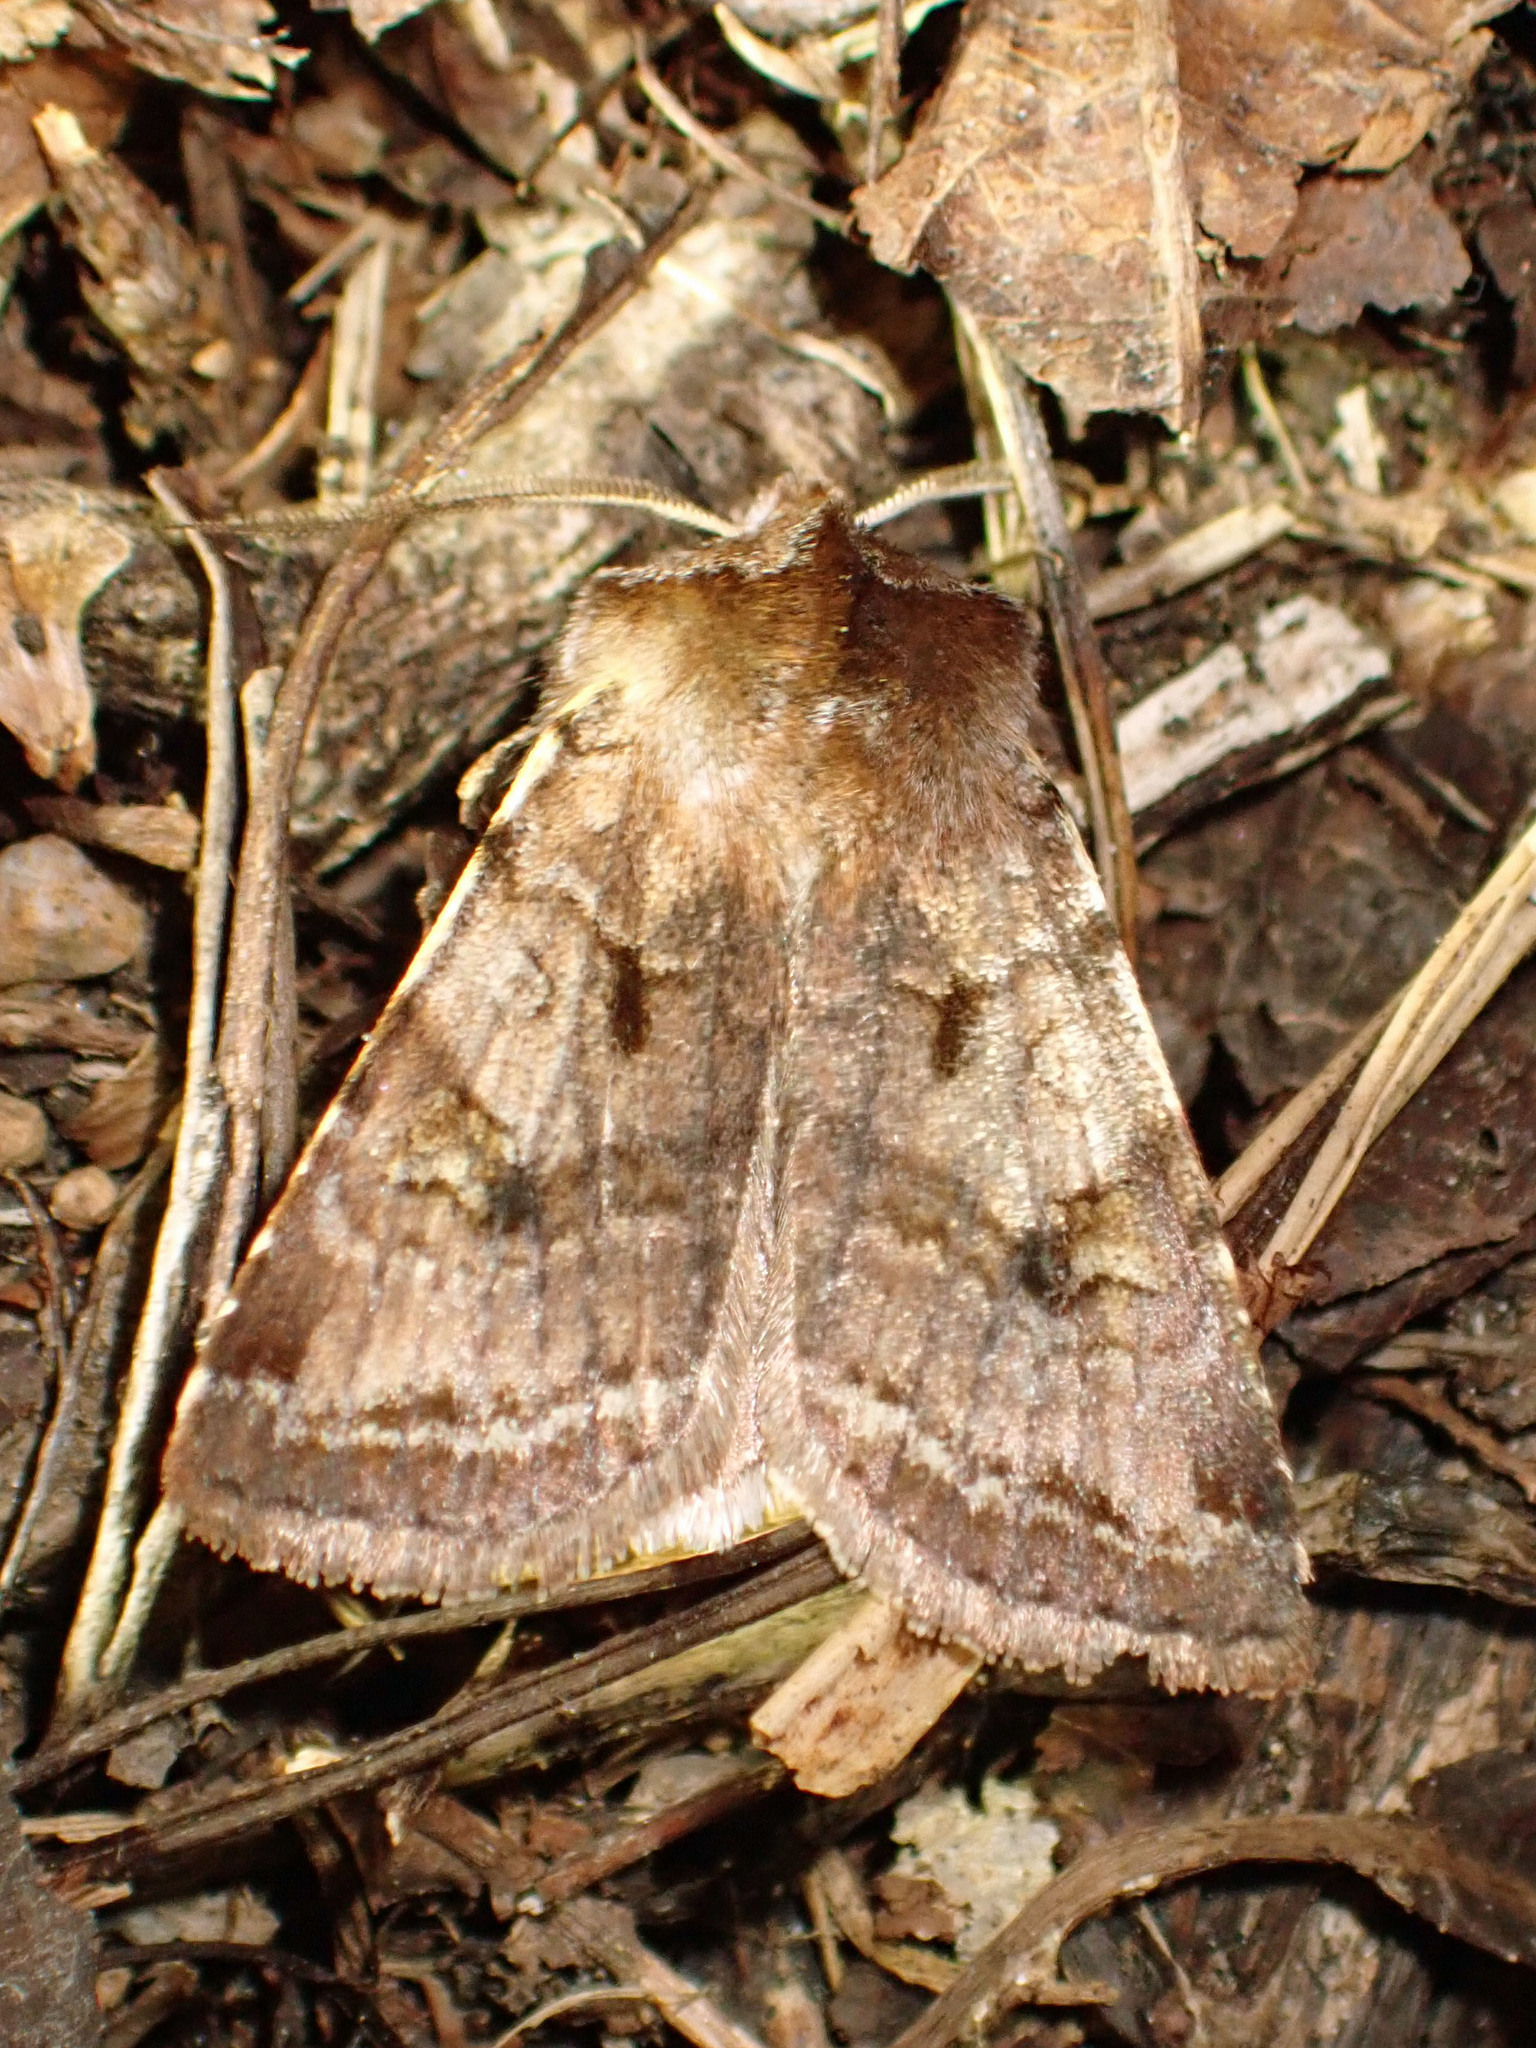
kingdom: Animalia
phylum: Arthropoda
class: Insecta
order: Lepidoptera
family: Noctuidae
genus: Cerastis
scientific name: Cerastis salicarum
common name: Willow dart
